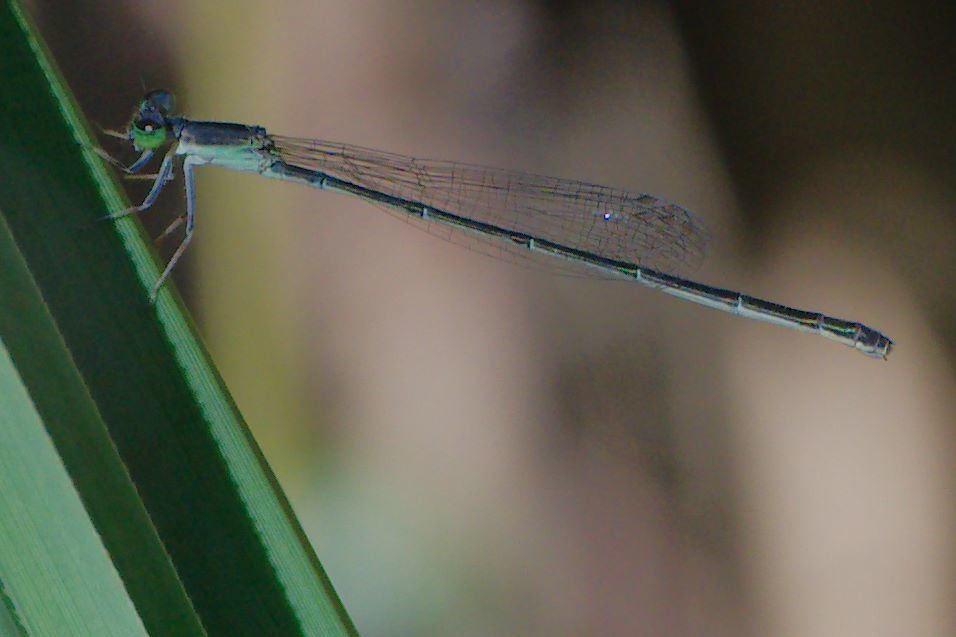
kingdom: Animalia
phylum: Arthropoda
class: Insecta
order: Odonata
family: Coenagrionidae
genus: Ischnura
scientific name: Ischnura prognata
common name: Furtive forktail
